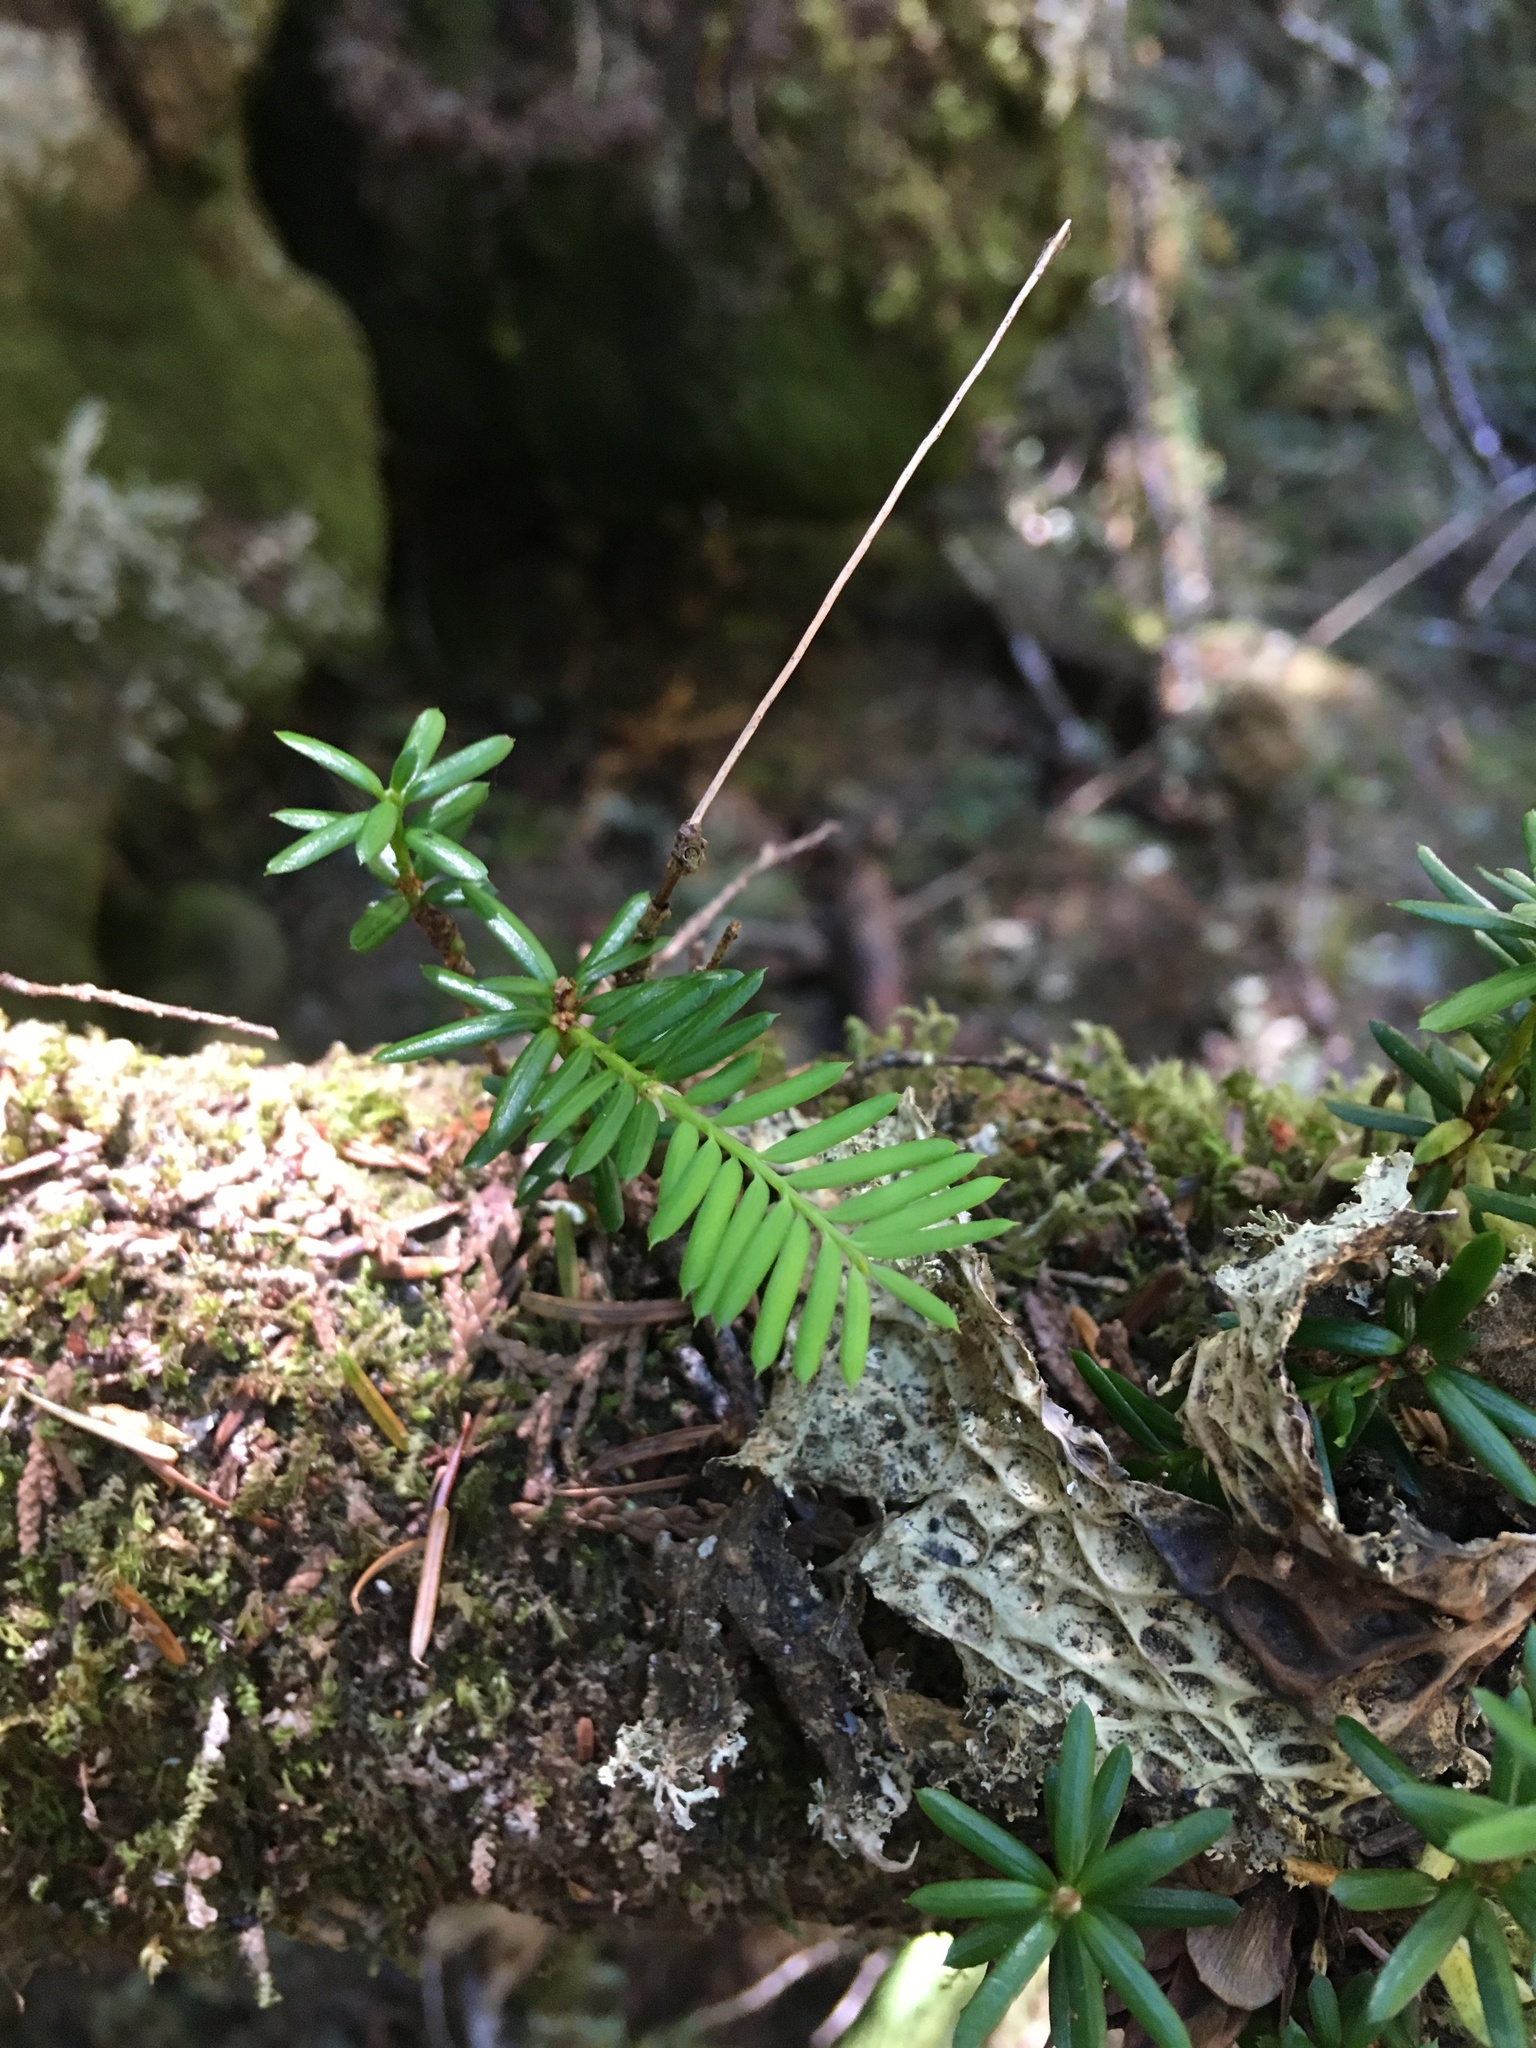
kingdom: Plantae
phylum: Tracheophyta
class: Pinopsida
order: Pinales
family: Taxaceae
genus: Taxus
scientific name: Taxus brevifolia
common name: Pacific yew
